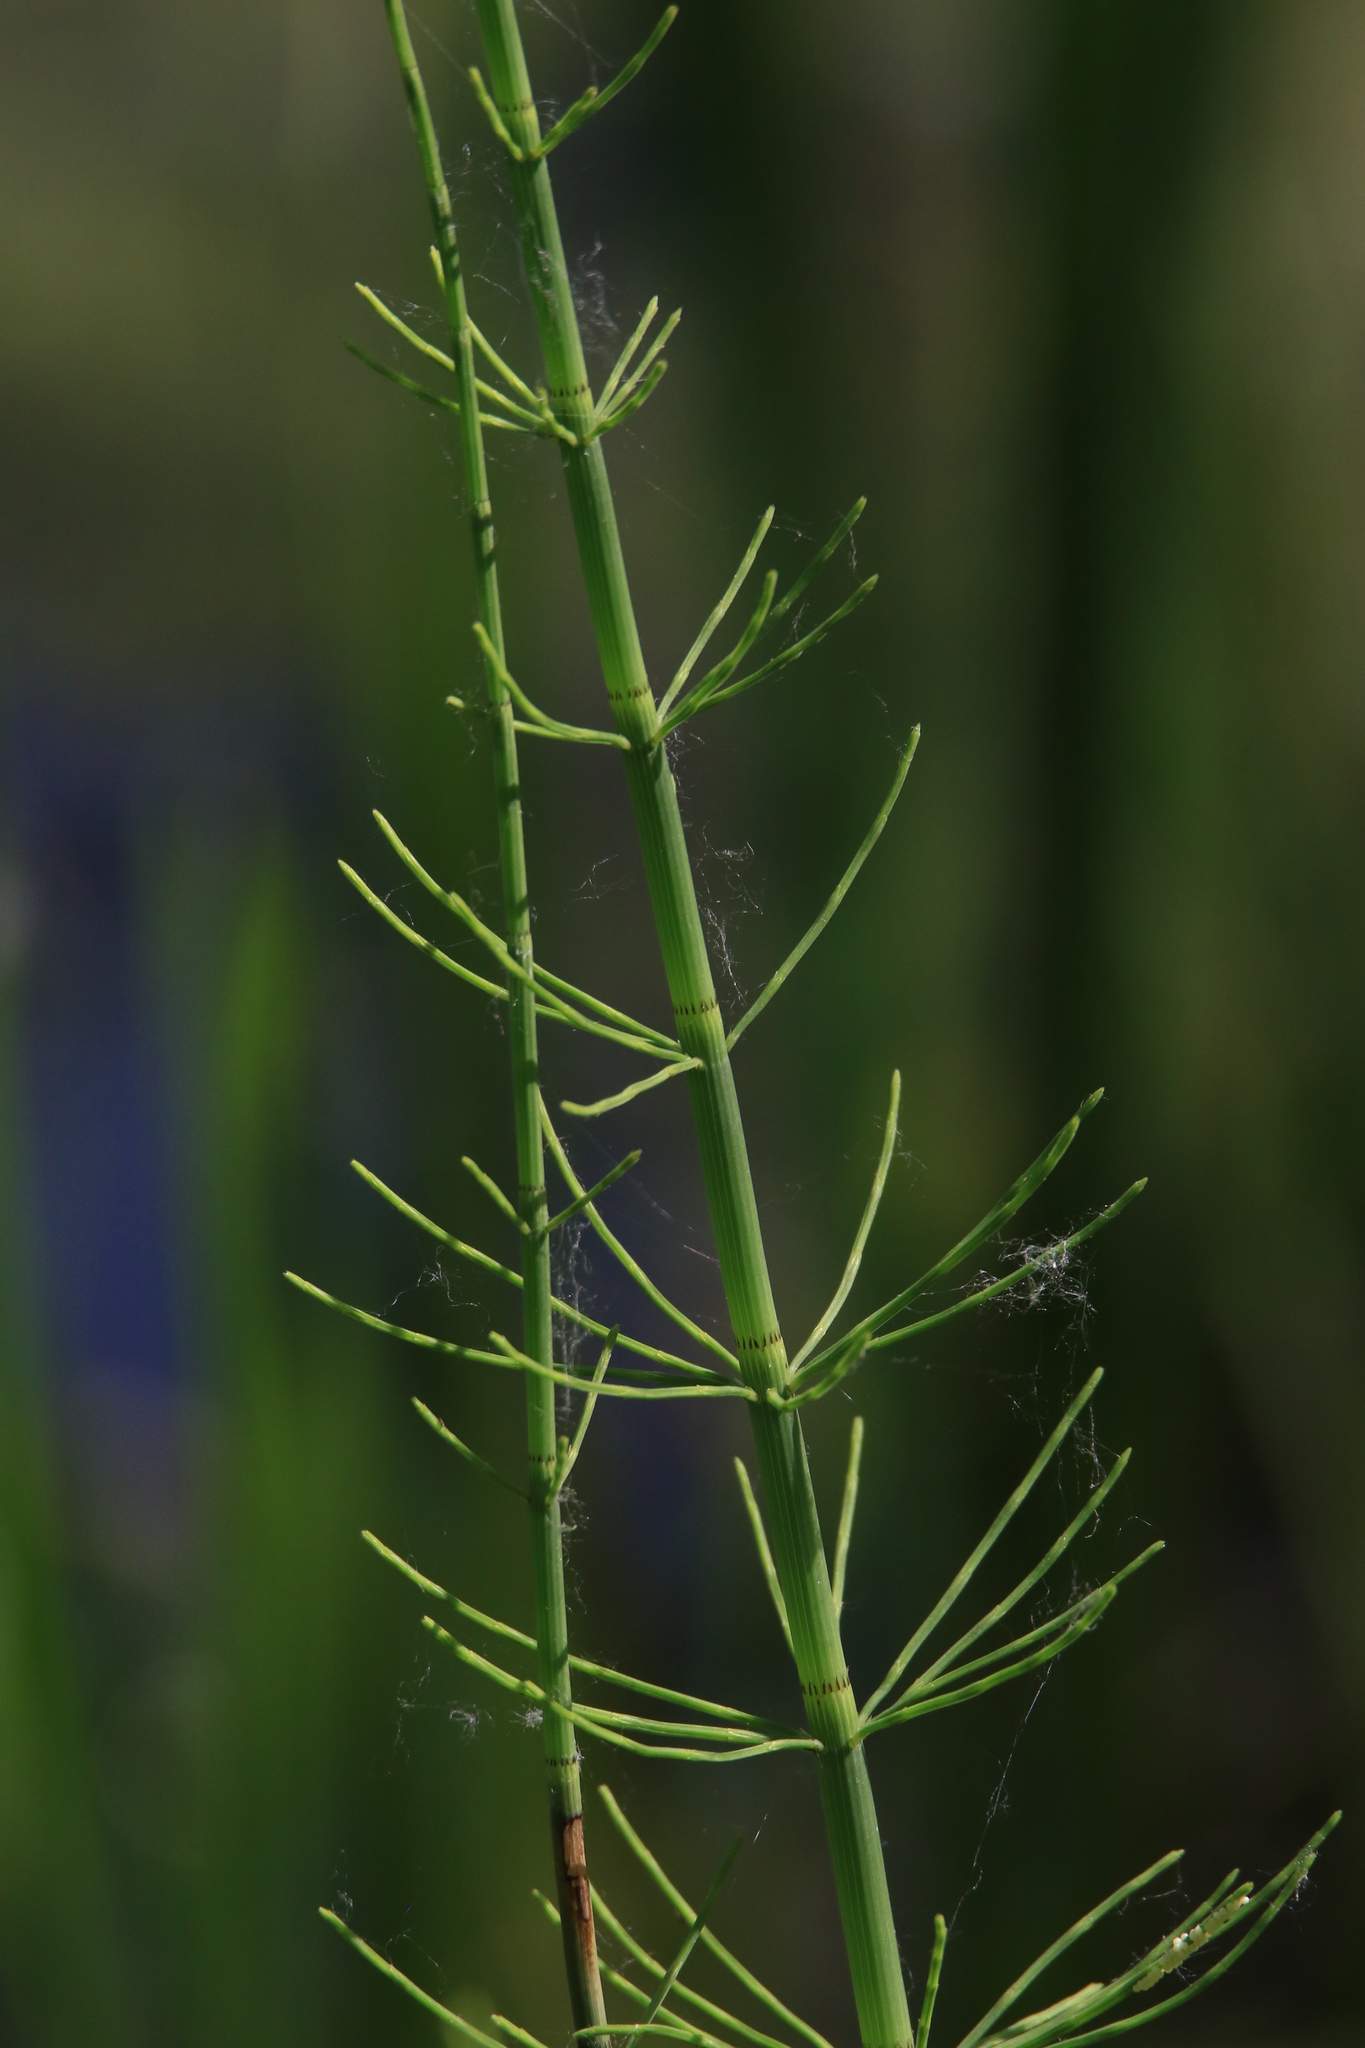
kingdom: Plantae
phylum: Tracheophyta
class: Polypodiopsida
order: Equisetales
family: Equisetaceae
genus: Equisetum
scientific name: Equisetum fluviatile
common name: Water horsetail
